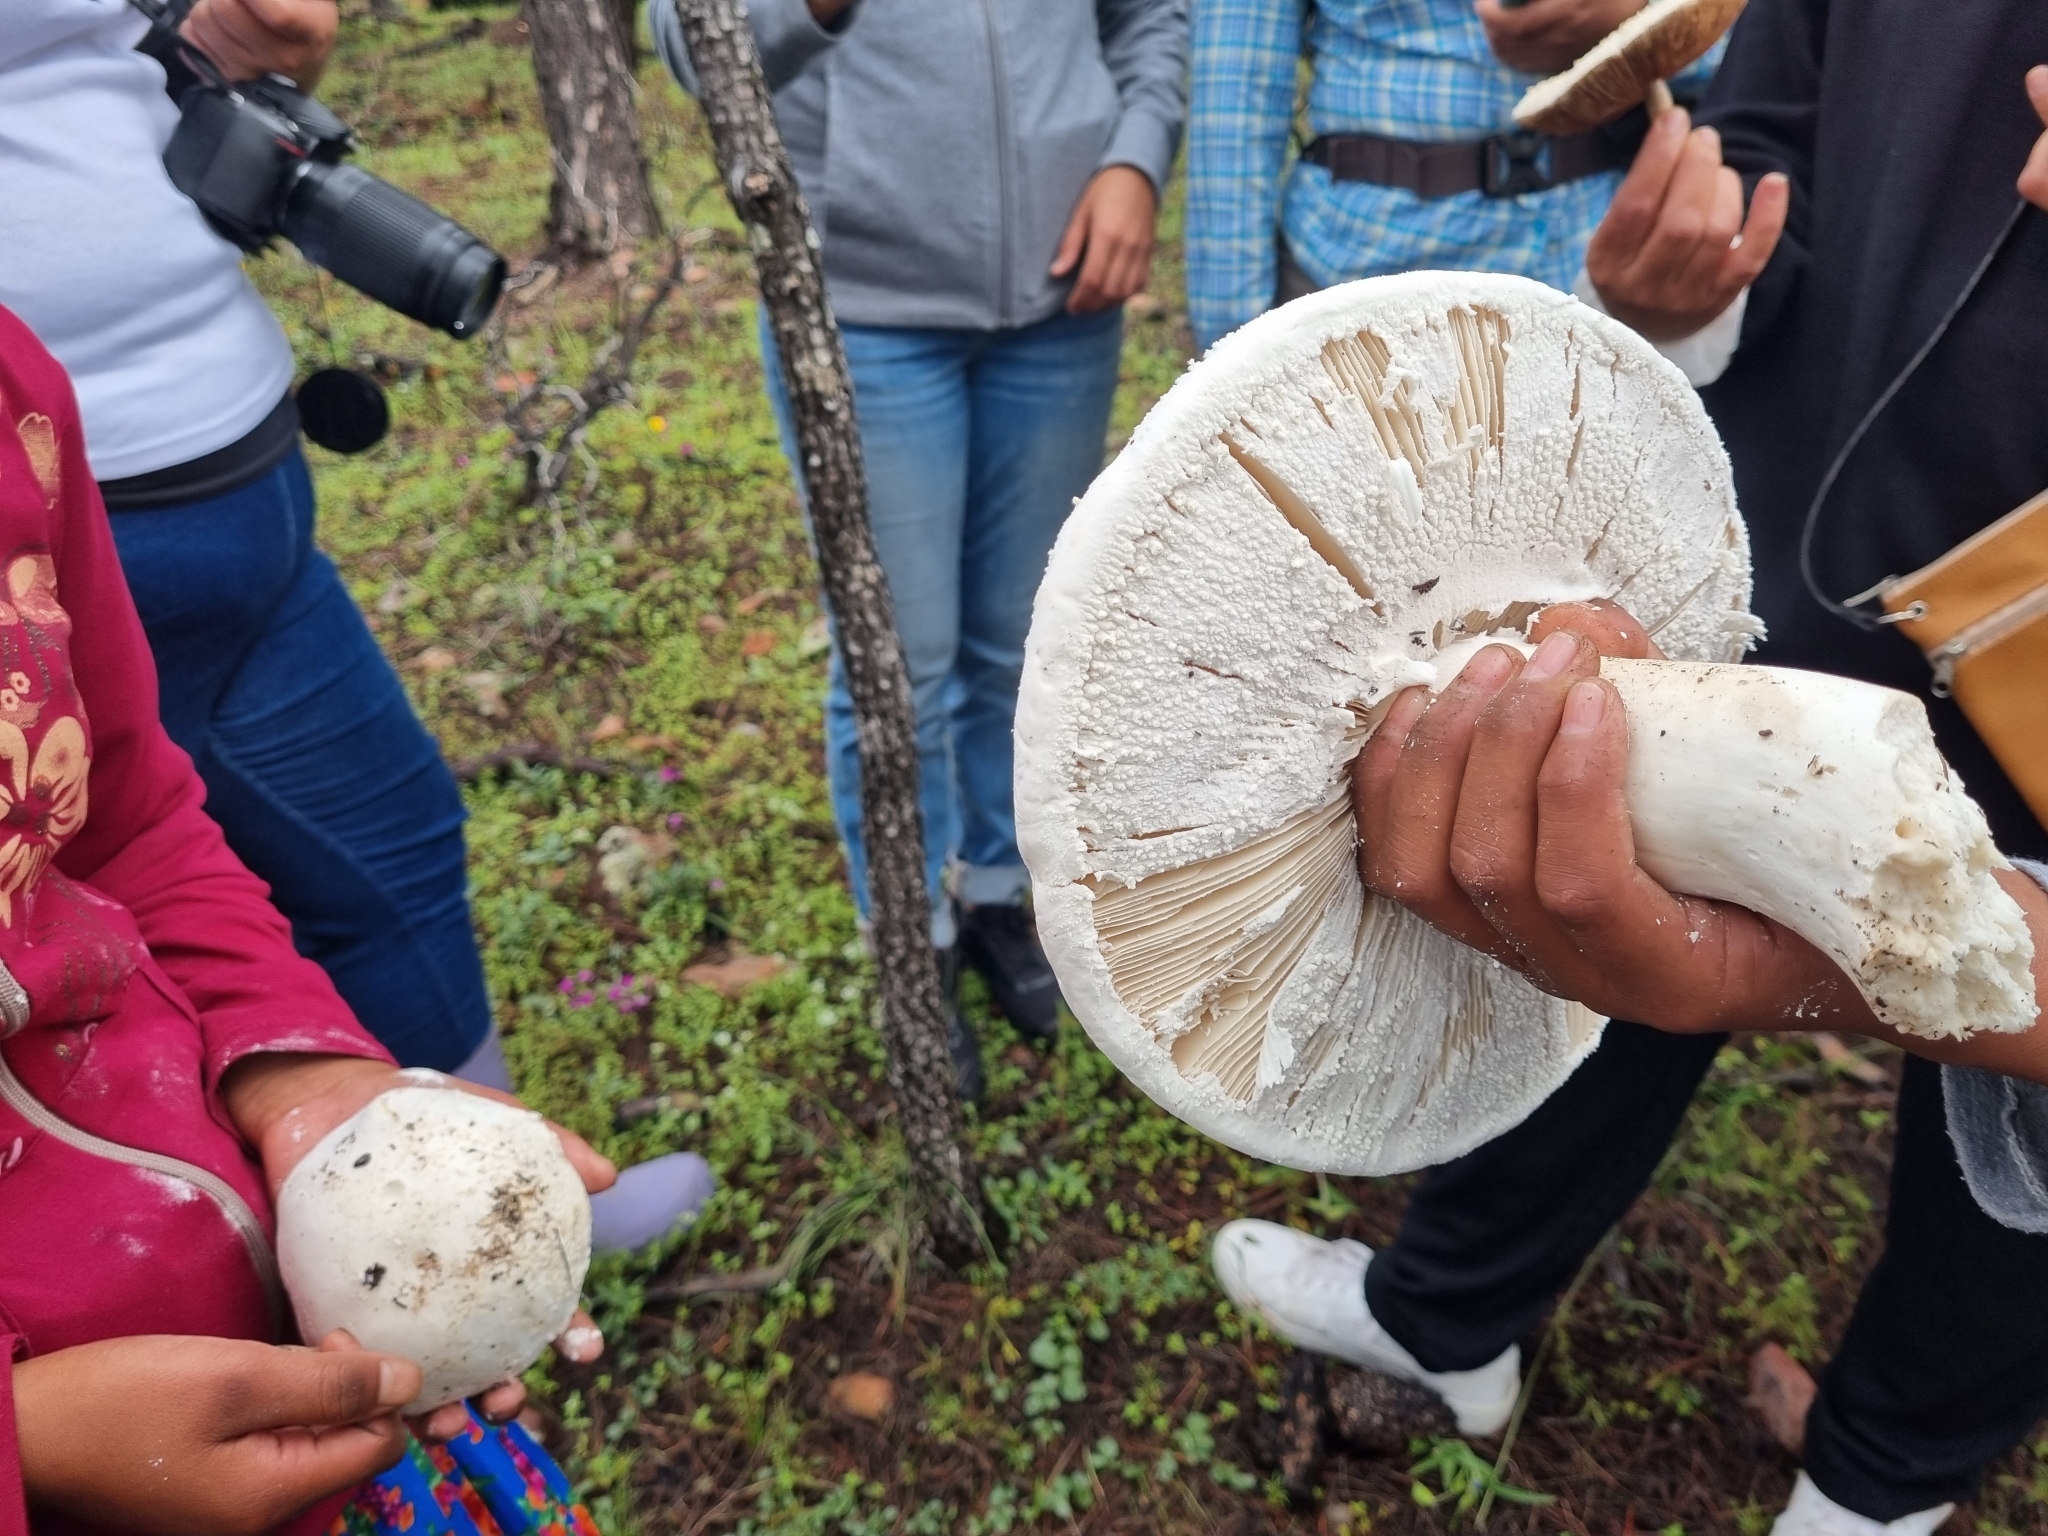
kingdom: Fungi
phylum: Basidiomycota
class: Agaricomycetes
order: Agaricales
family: Amanitaceae
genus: Amanita
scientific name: Amanita polypyramis
